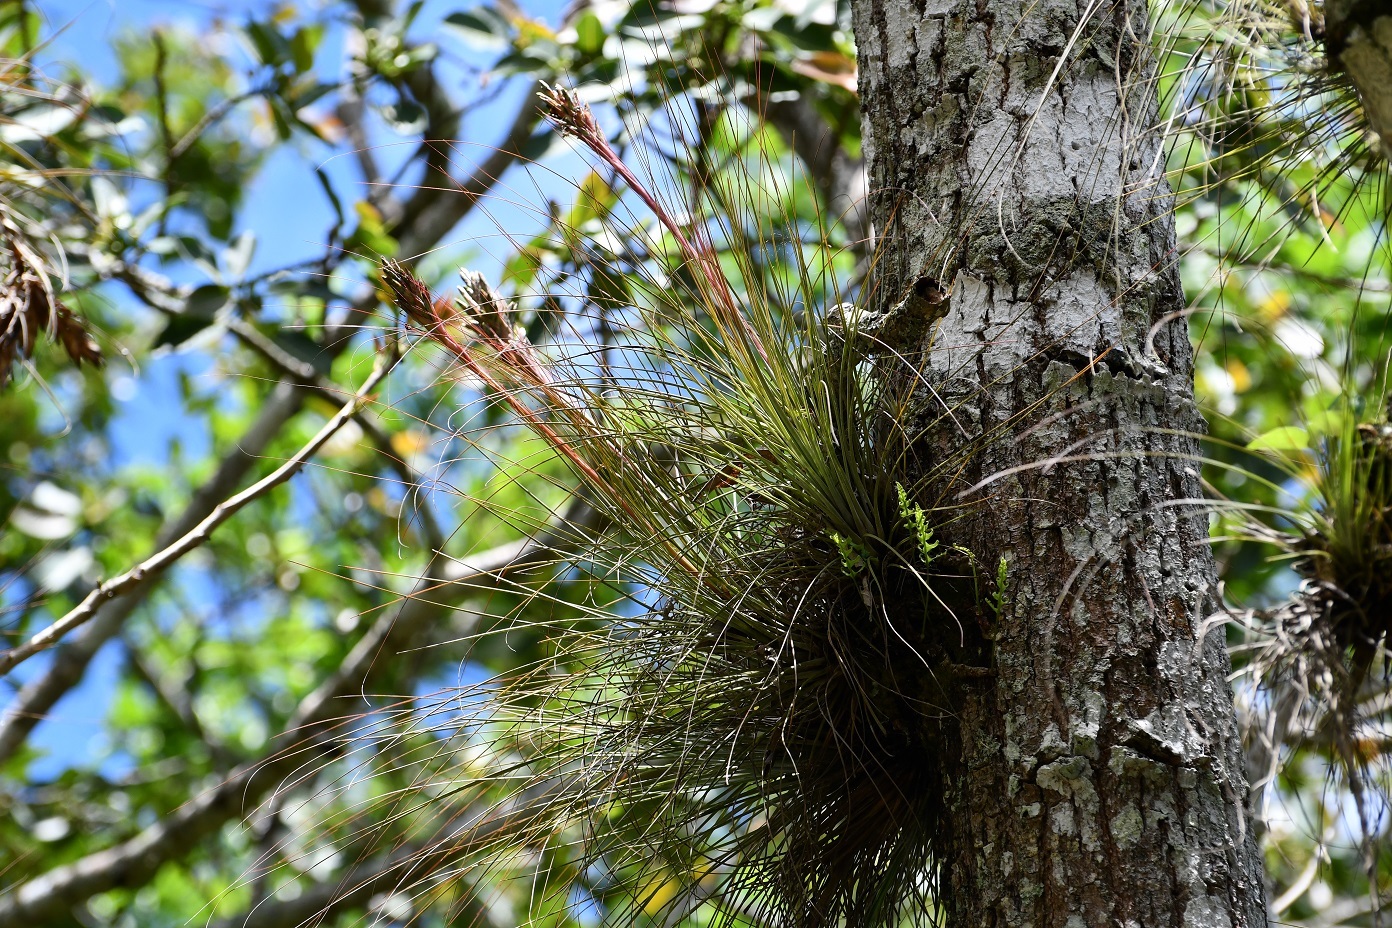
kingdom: Plantae
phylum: Tracheophyta
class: Liliopsida
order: Poales
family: Bromeliaceae
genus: Tillandsia
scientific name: Tillandsia juncea
